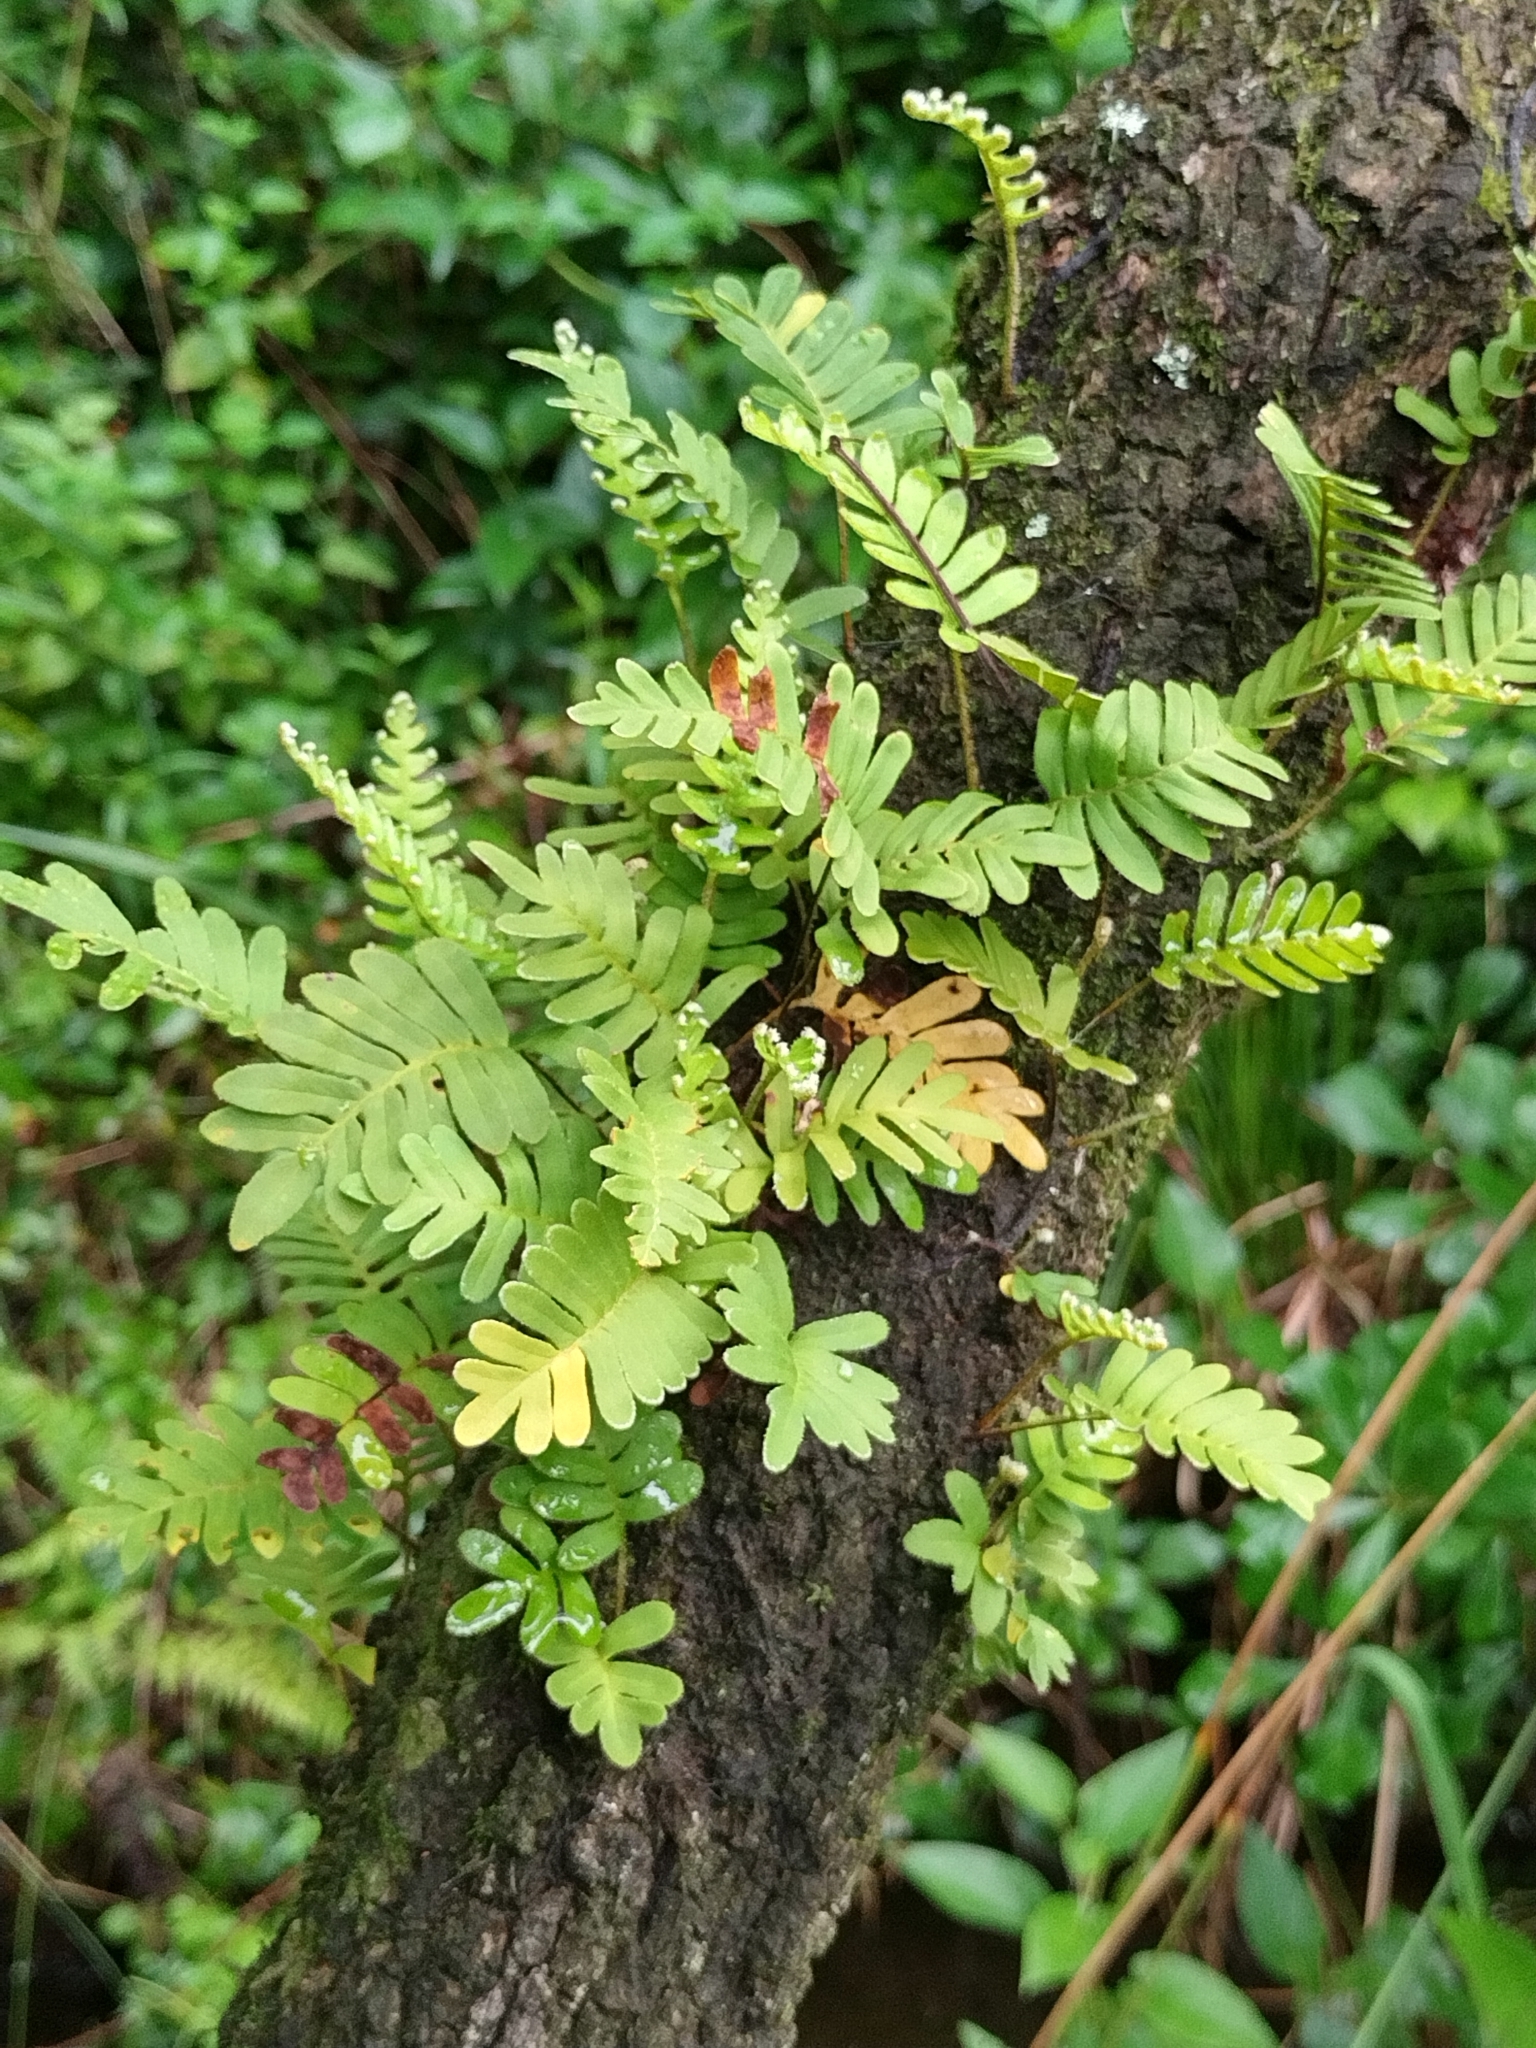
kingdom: Plantae
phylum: Tracheophyta
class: Polypodiopsida
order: Polypodiales
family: Polypodiaceae
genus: Pleopeltis
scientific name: Pleopeltis michauxiana
